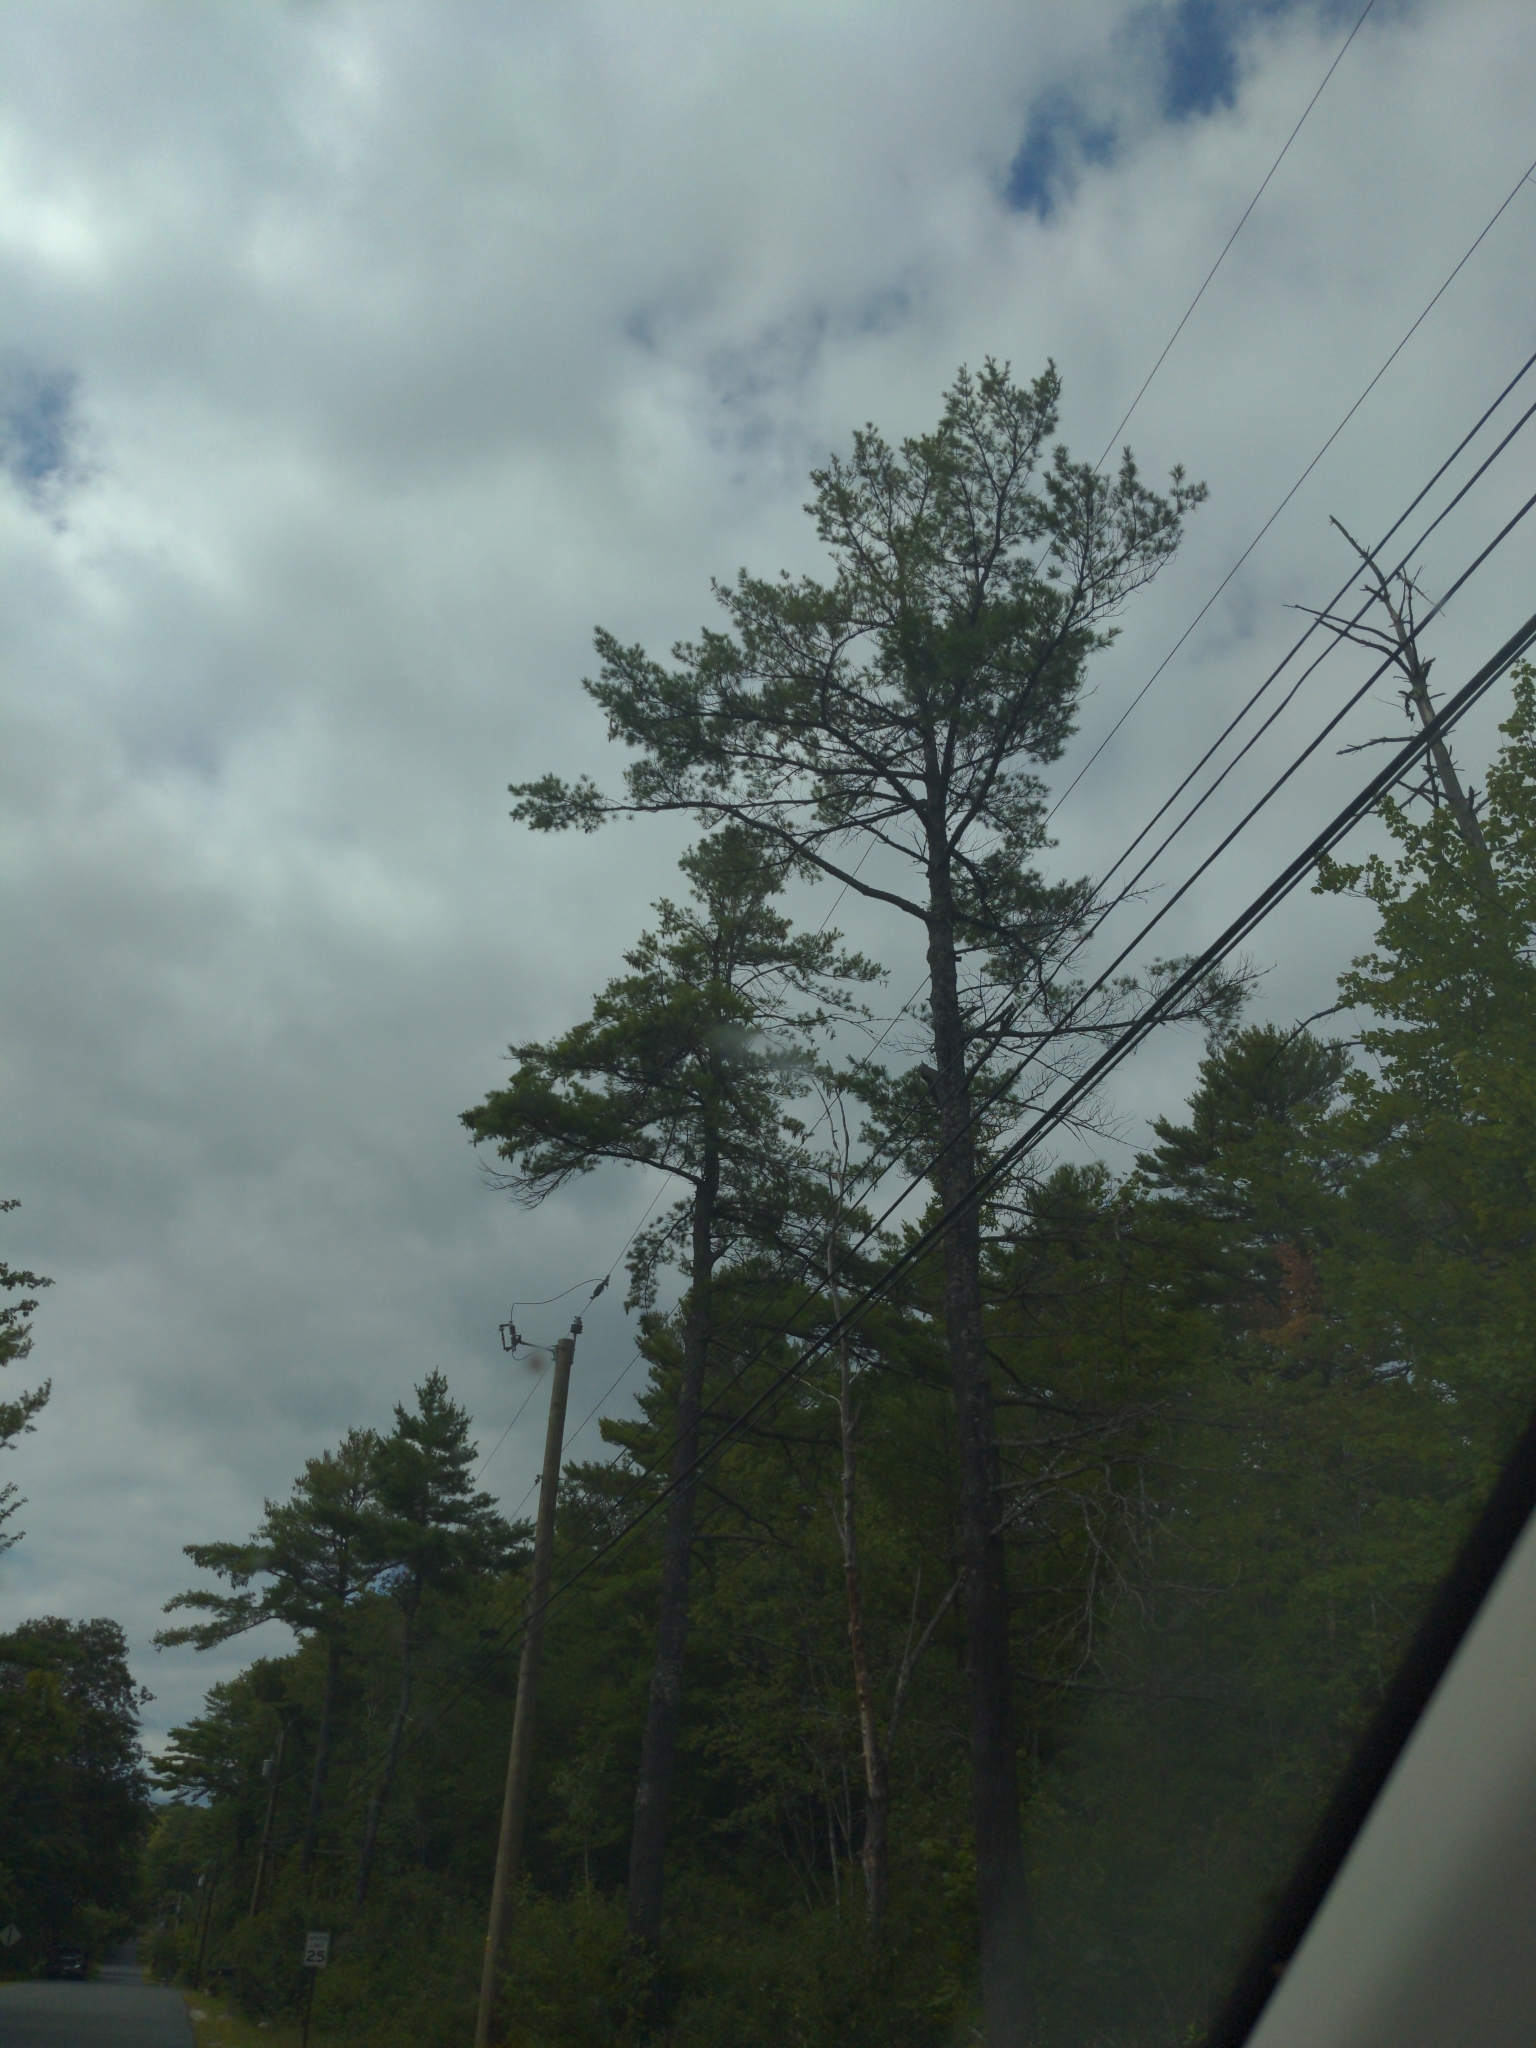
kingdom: Plantae
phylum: Tracheophyta
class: Pinopsida
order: Pinales
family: Pinaceae
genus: Pinus
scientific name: Pinus strobus
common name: Weymouth pine
